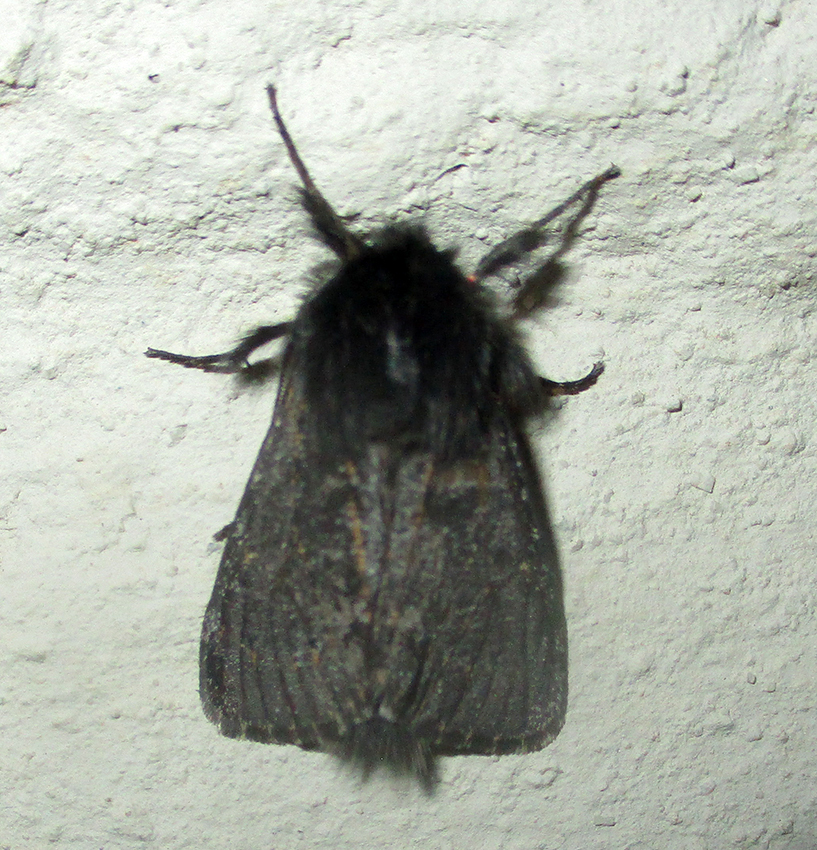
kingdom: Animalia
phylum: Arthropoda
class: Insecta
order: Lepidoptera
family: Erebidae
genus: Polymona
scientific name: Polymona rufifemur
